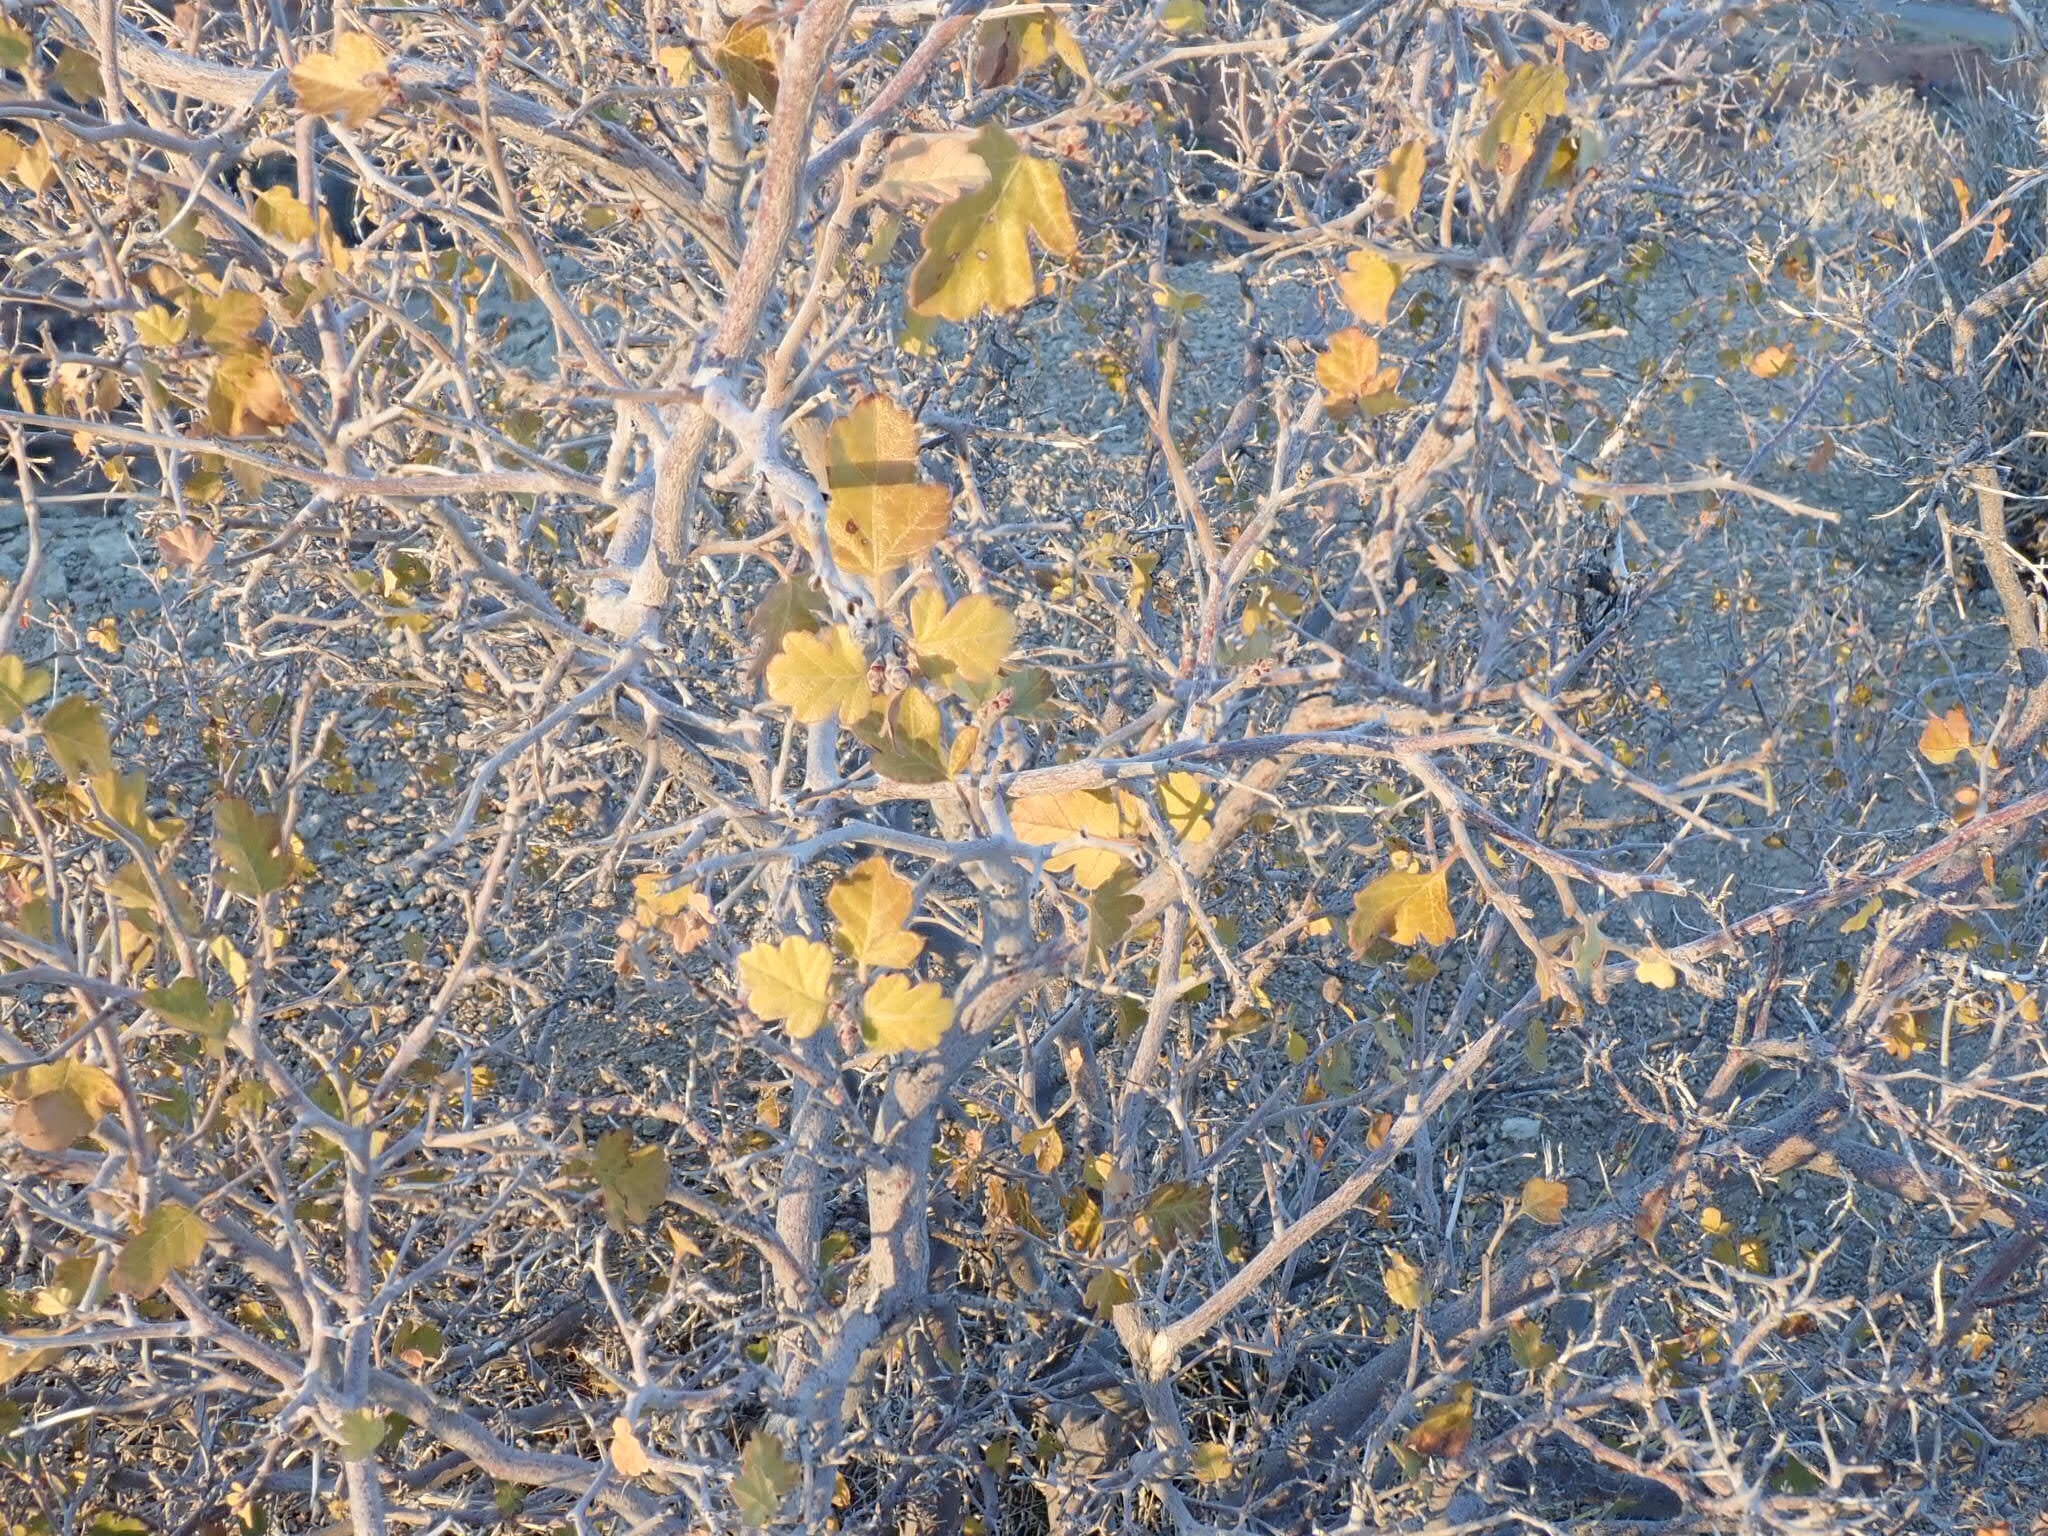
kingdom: Plantae
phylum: Tracheophyta
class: Magnoliopsida
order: Sapindales
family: Anacardiaceae
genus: Rhus
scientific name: Rhus aromatica
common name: Aromatic sumac
